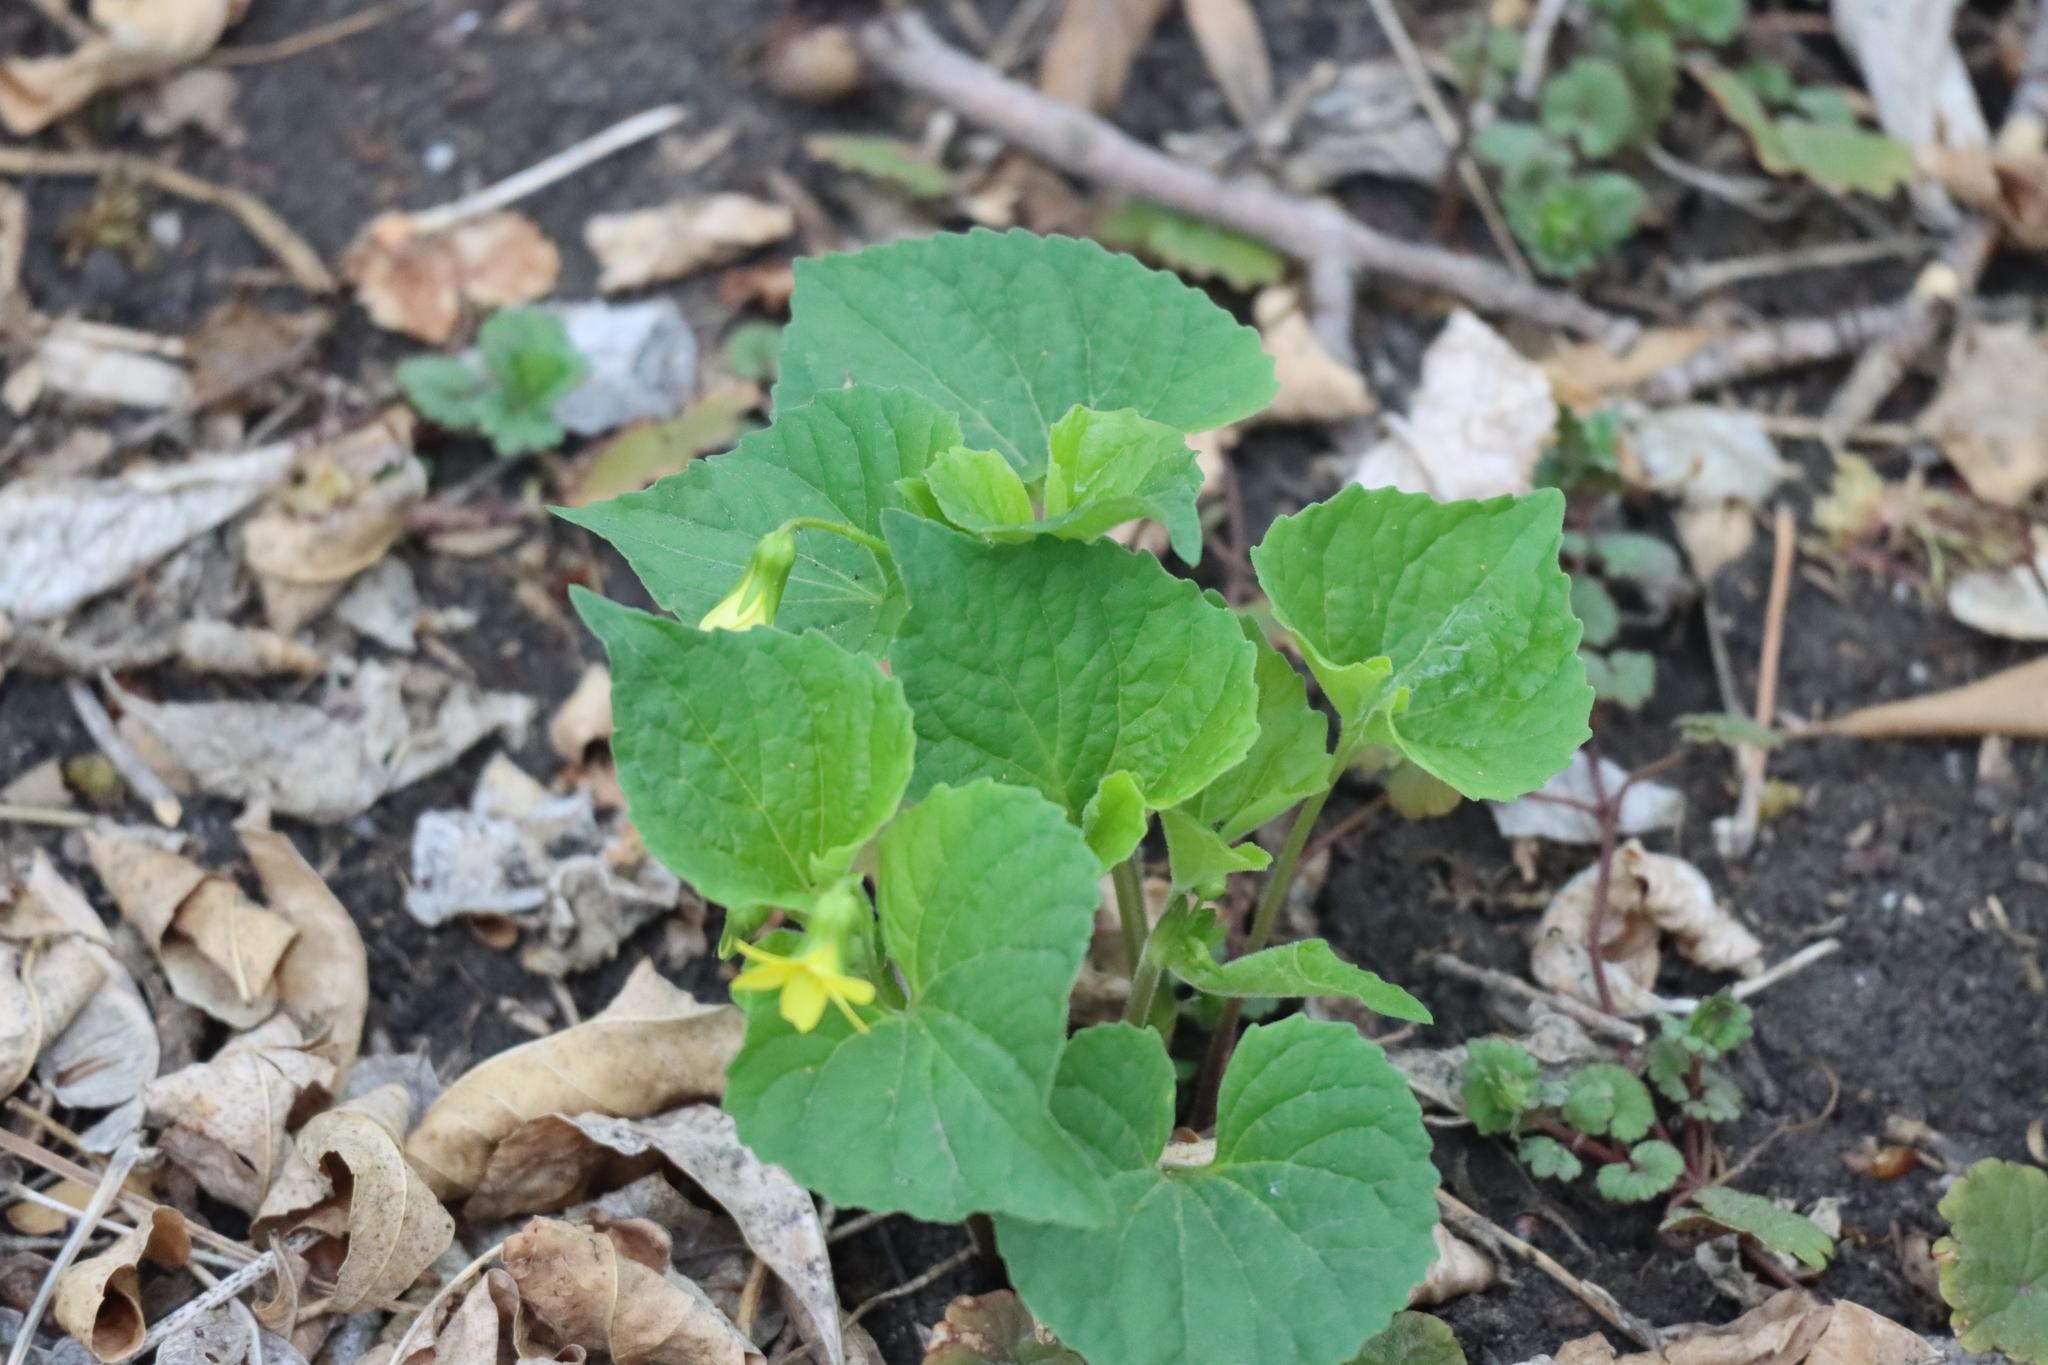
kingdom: Plantae
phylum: Tracheophyta
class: Magnoliopsida
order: Malpighiales
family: Violaceae
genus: Viola
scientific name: Viola eriocarpa
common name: Smooth yellow violet
